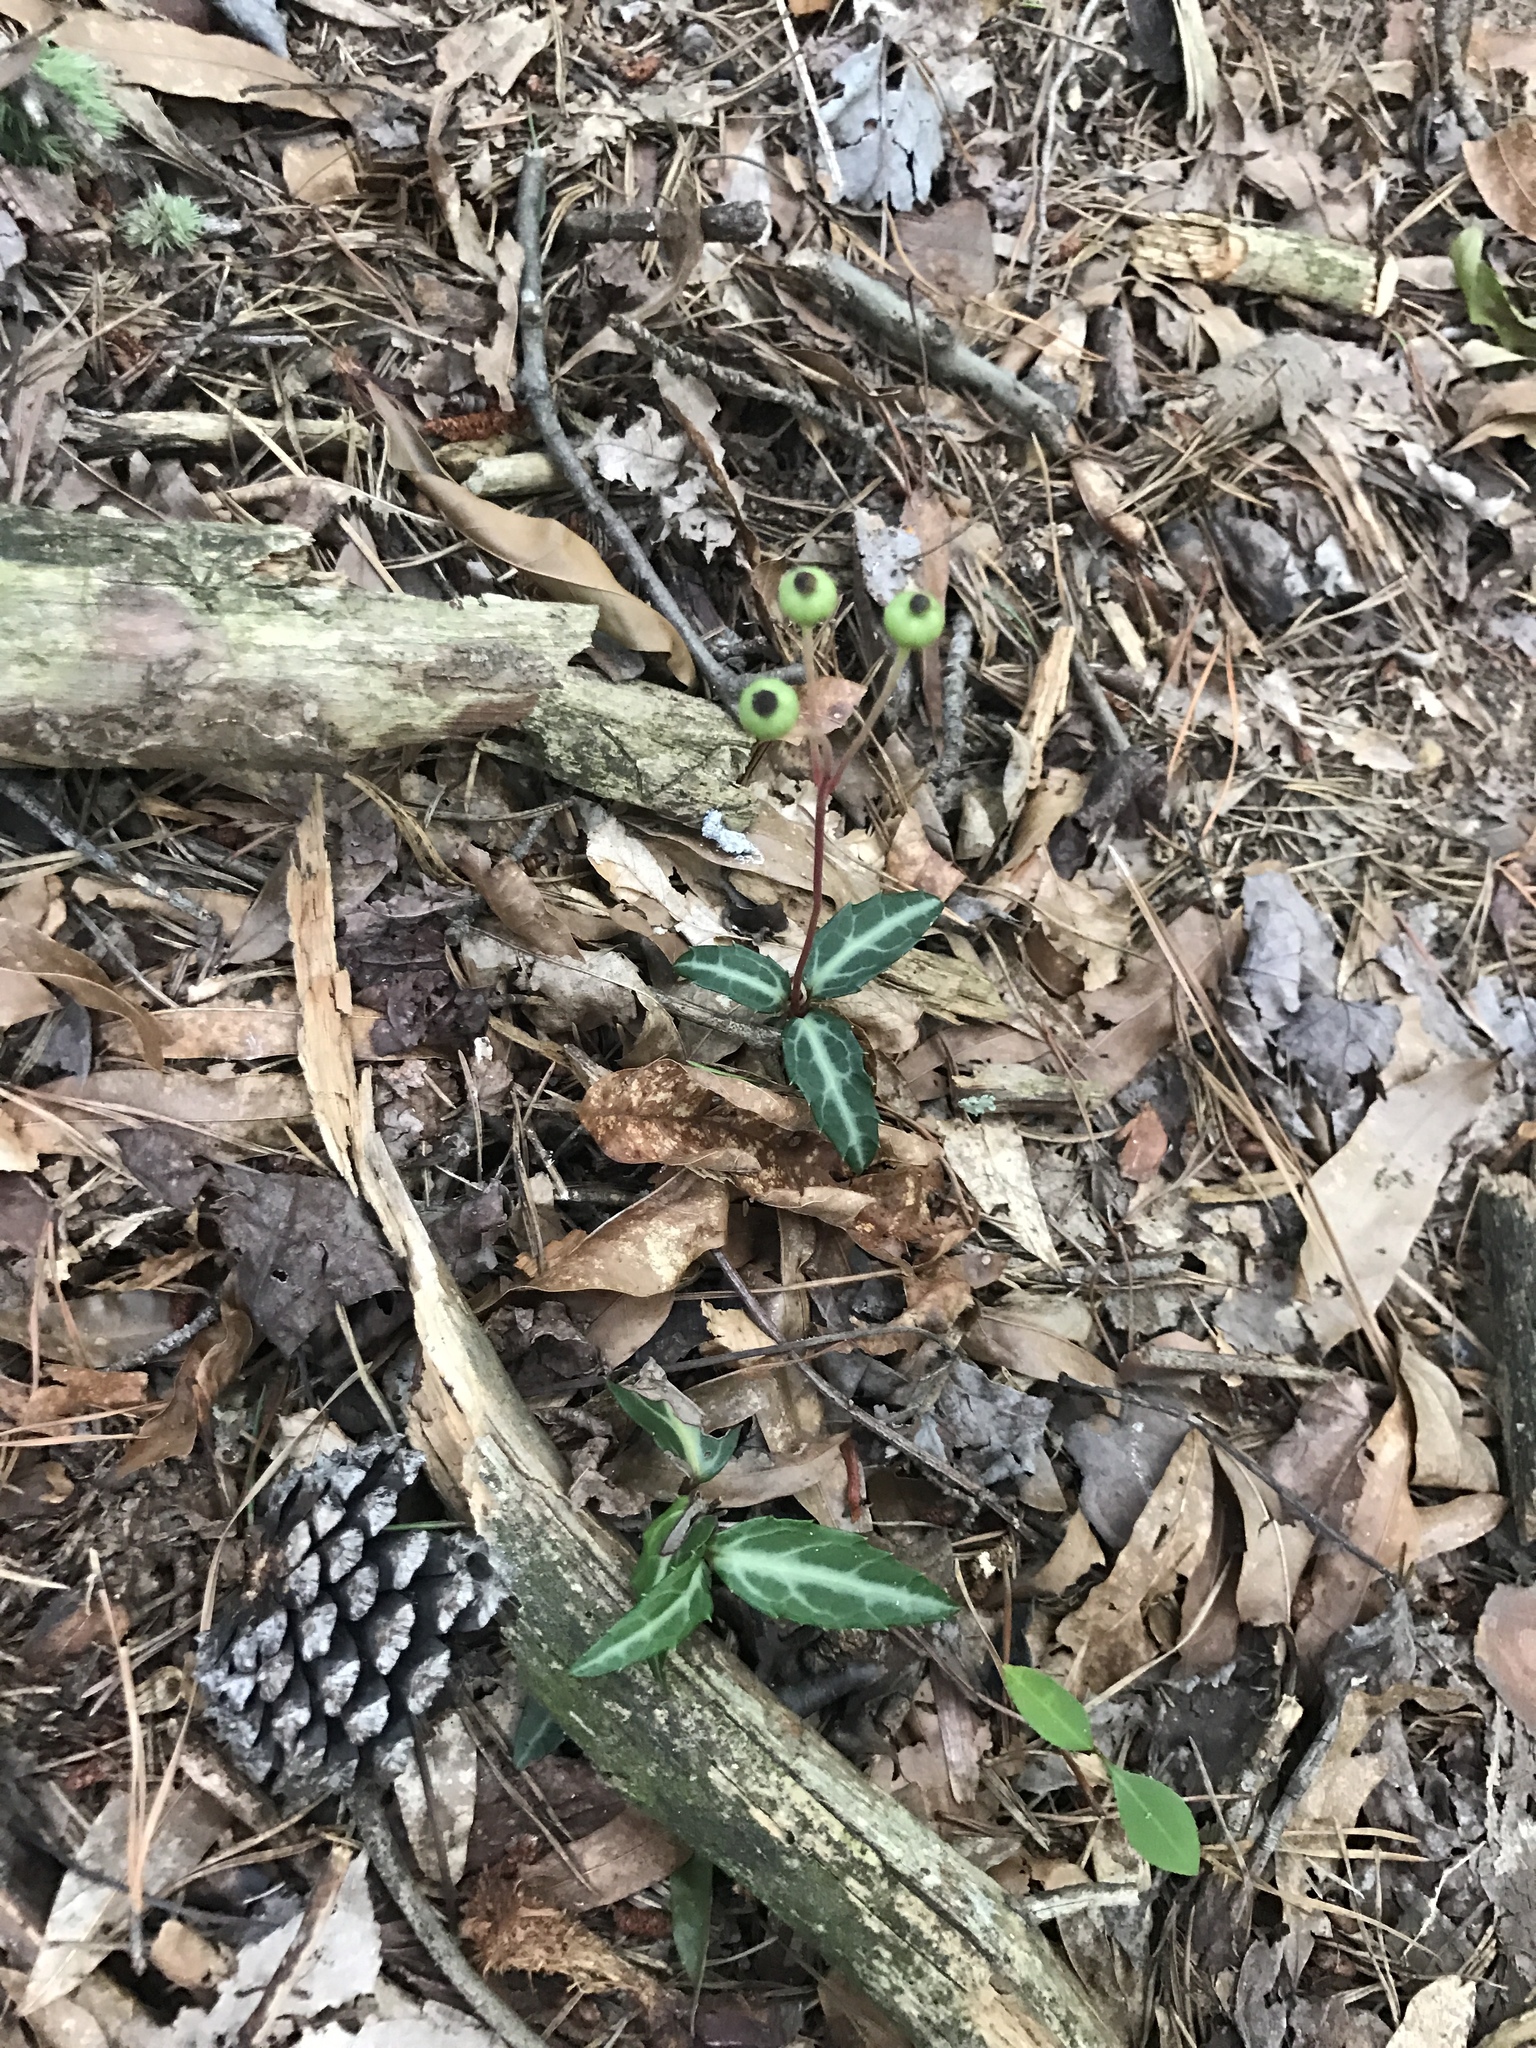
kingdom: Plantae
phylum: Tracheophyta
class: Magnoliopsida
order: Ericales
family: Ericaceae
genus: Chimaphila
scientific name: Chimaphila maculata
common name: Spotted pipsissewa
